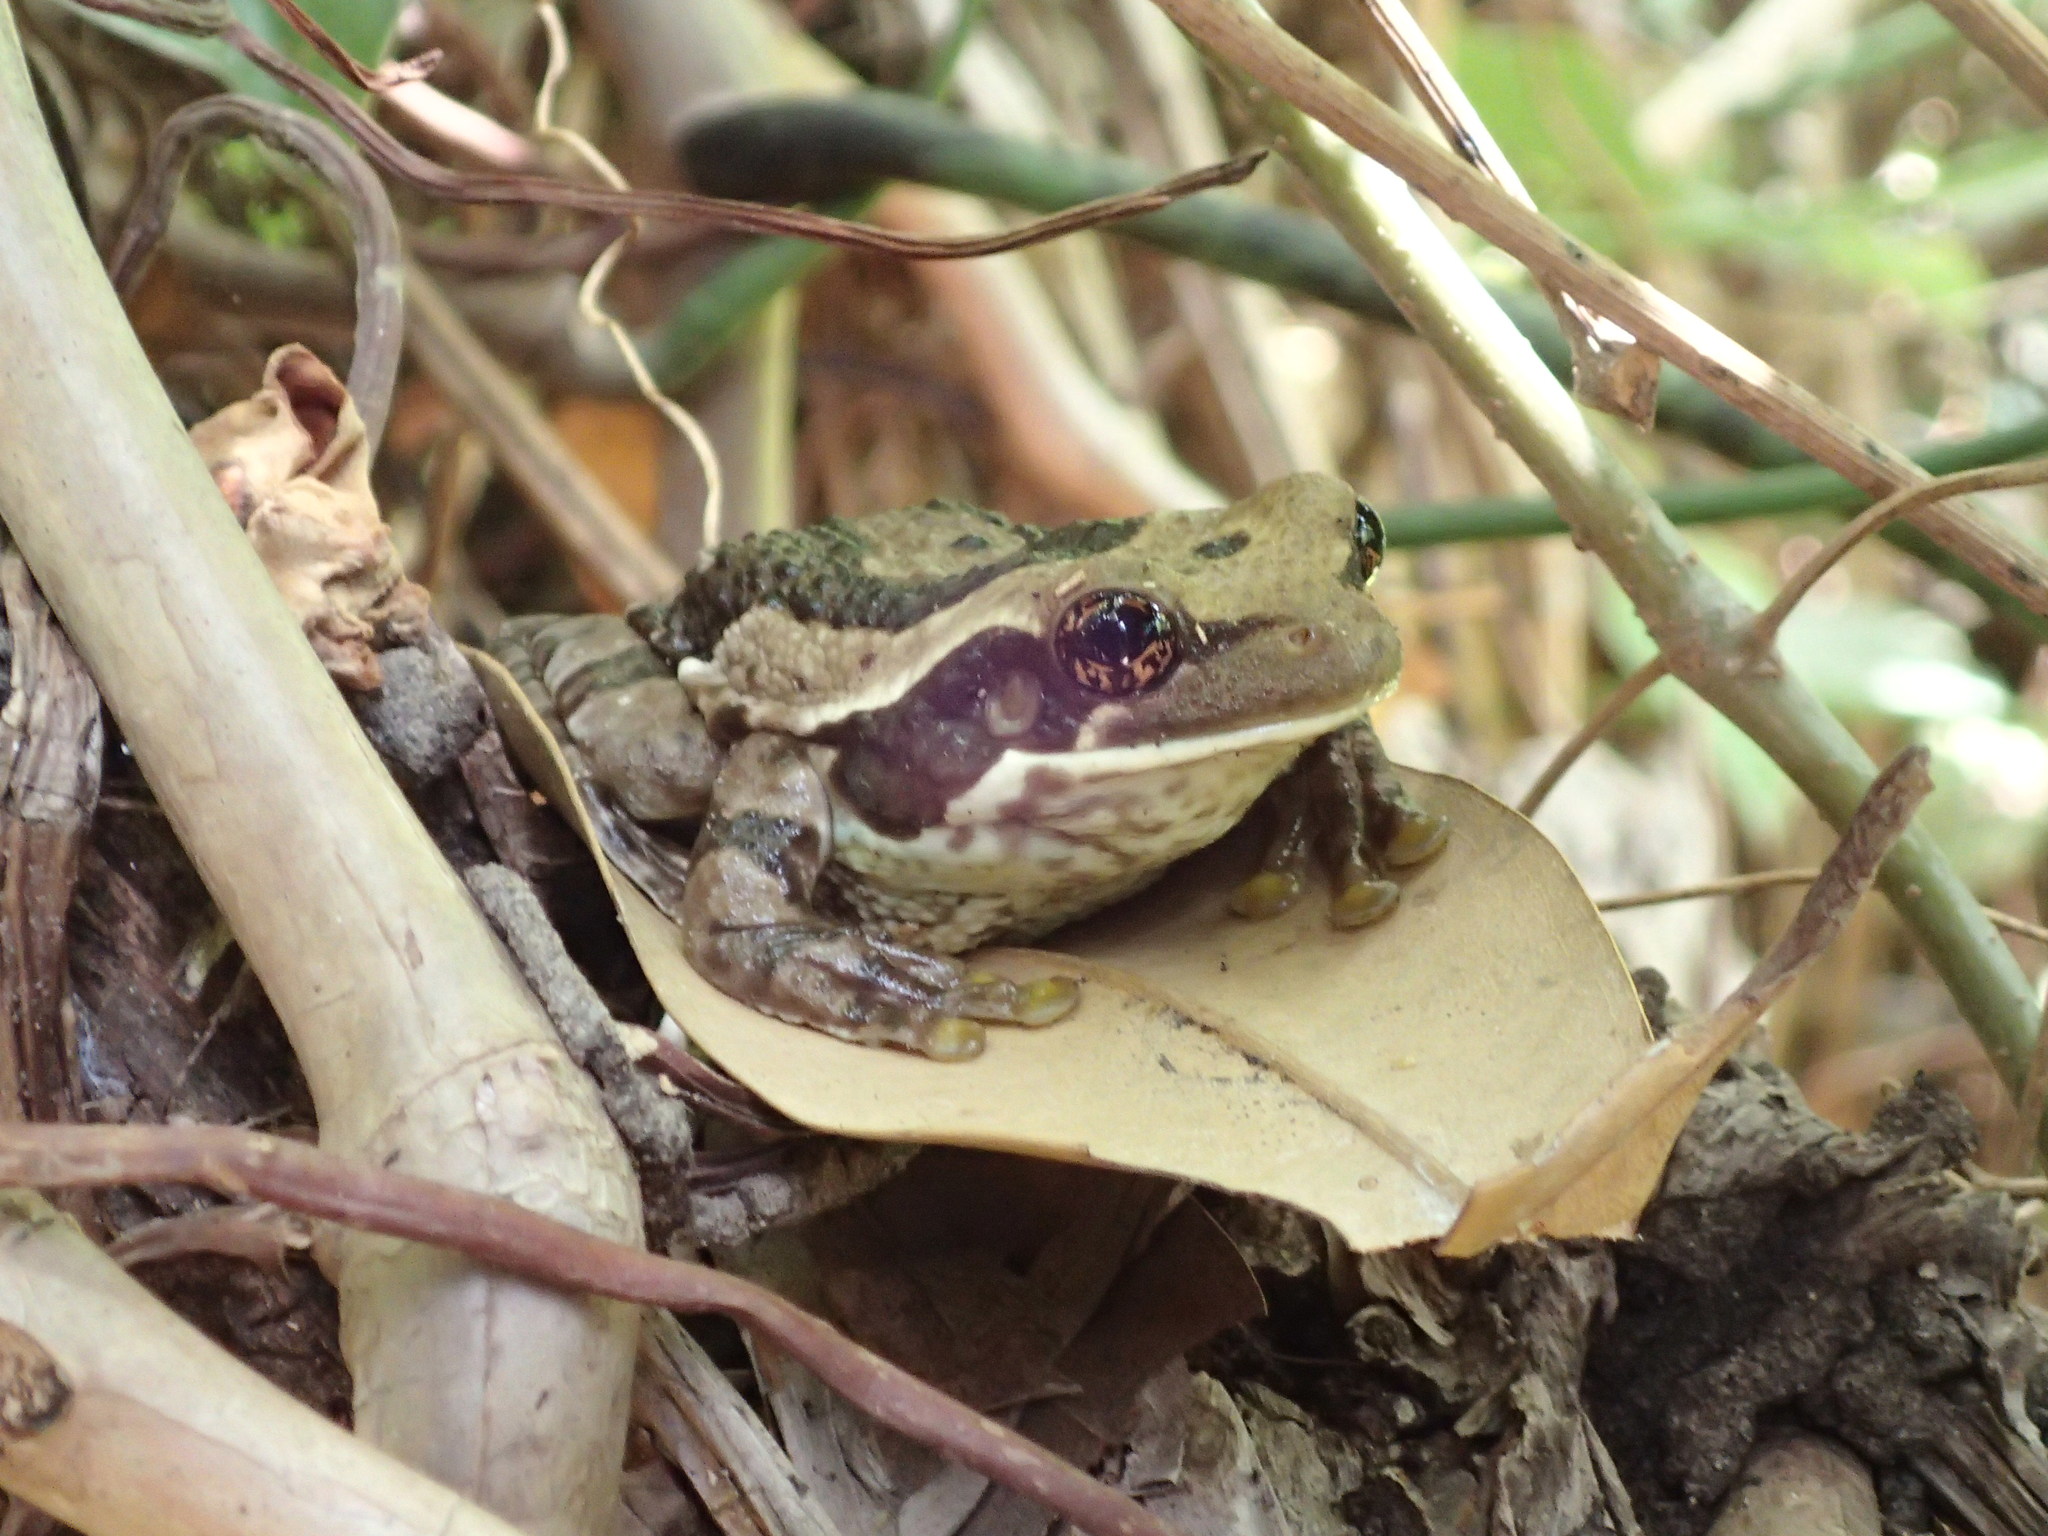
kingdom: Animalia
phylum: Chordata
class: Amphibia
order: Anura
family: Hylidae
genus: Trachycephalus
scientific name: Trachycephalus typhonius
